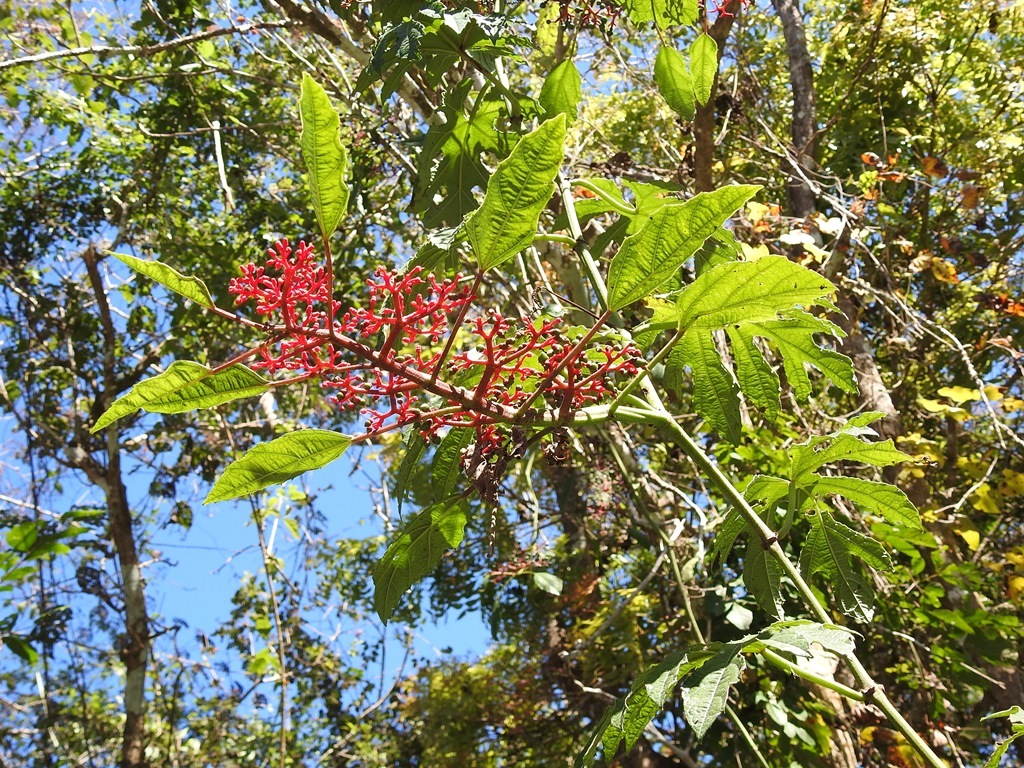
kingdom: Plantae
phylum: Tracheophyta
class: Magnoliopsida
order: Vitales
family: Vitaceae
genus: Cissus
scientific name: Cissus biformifolia
